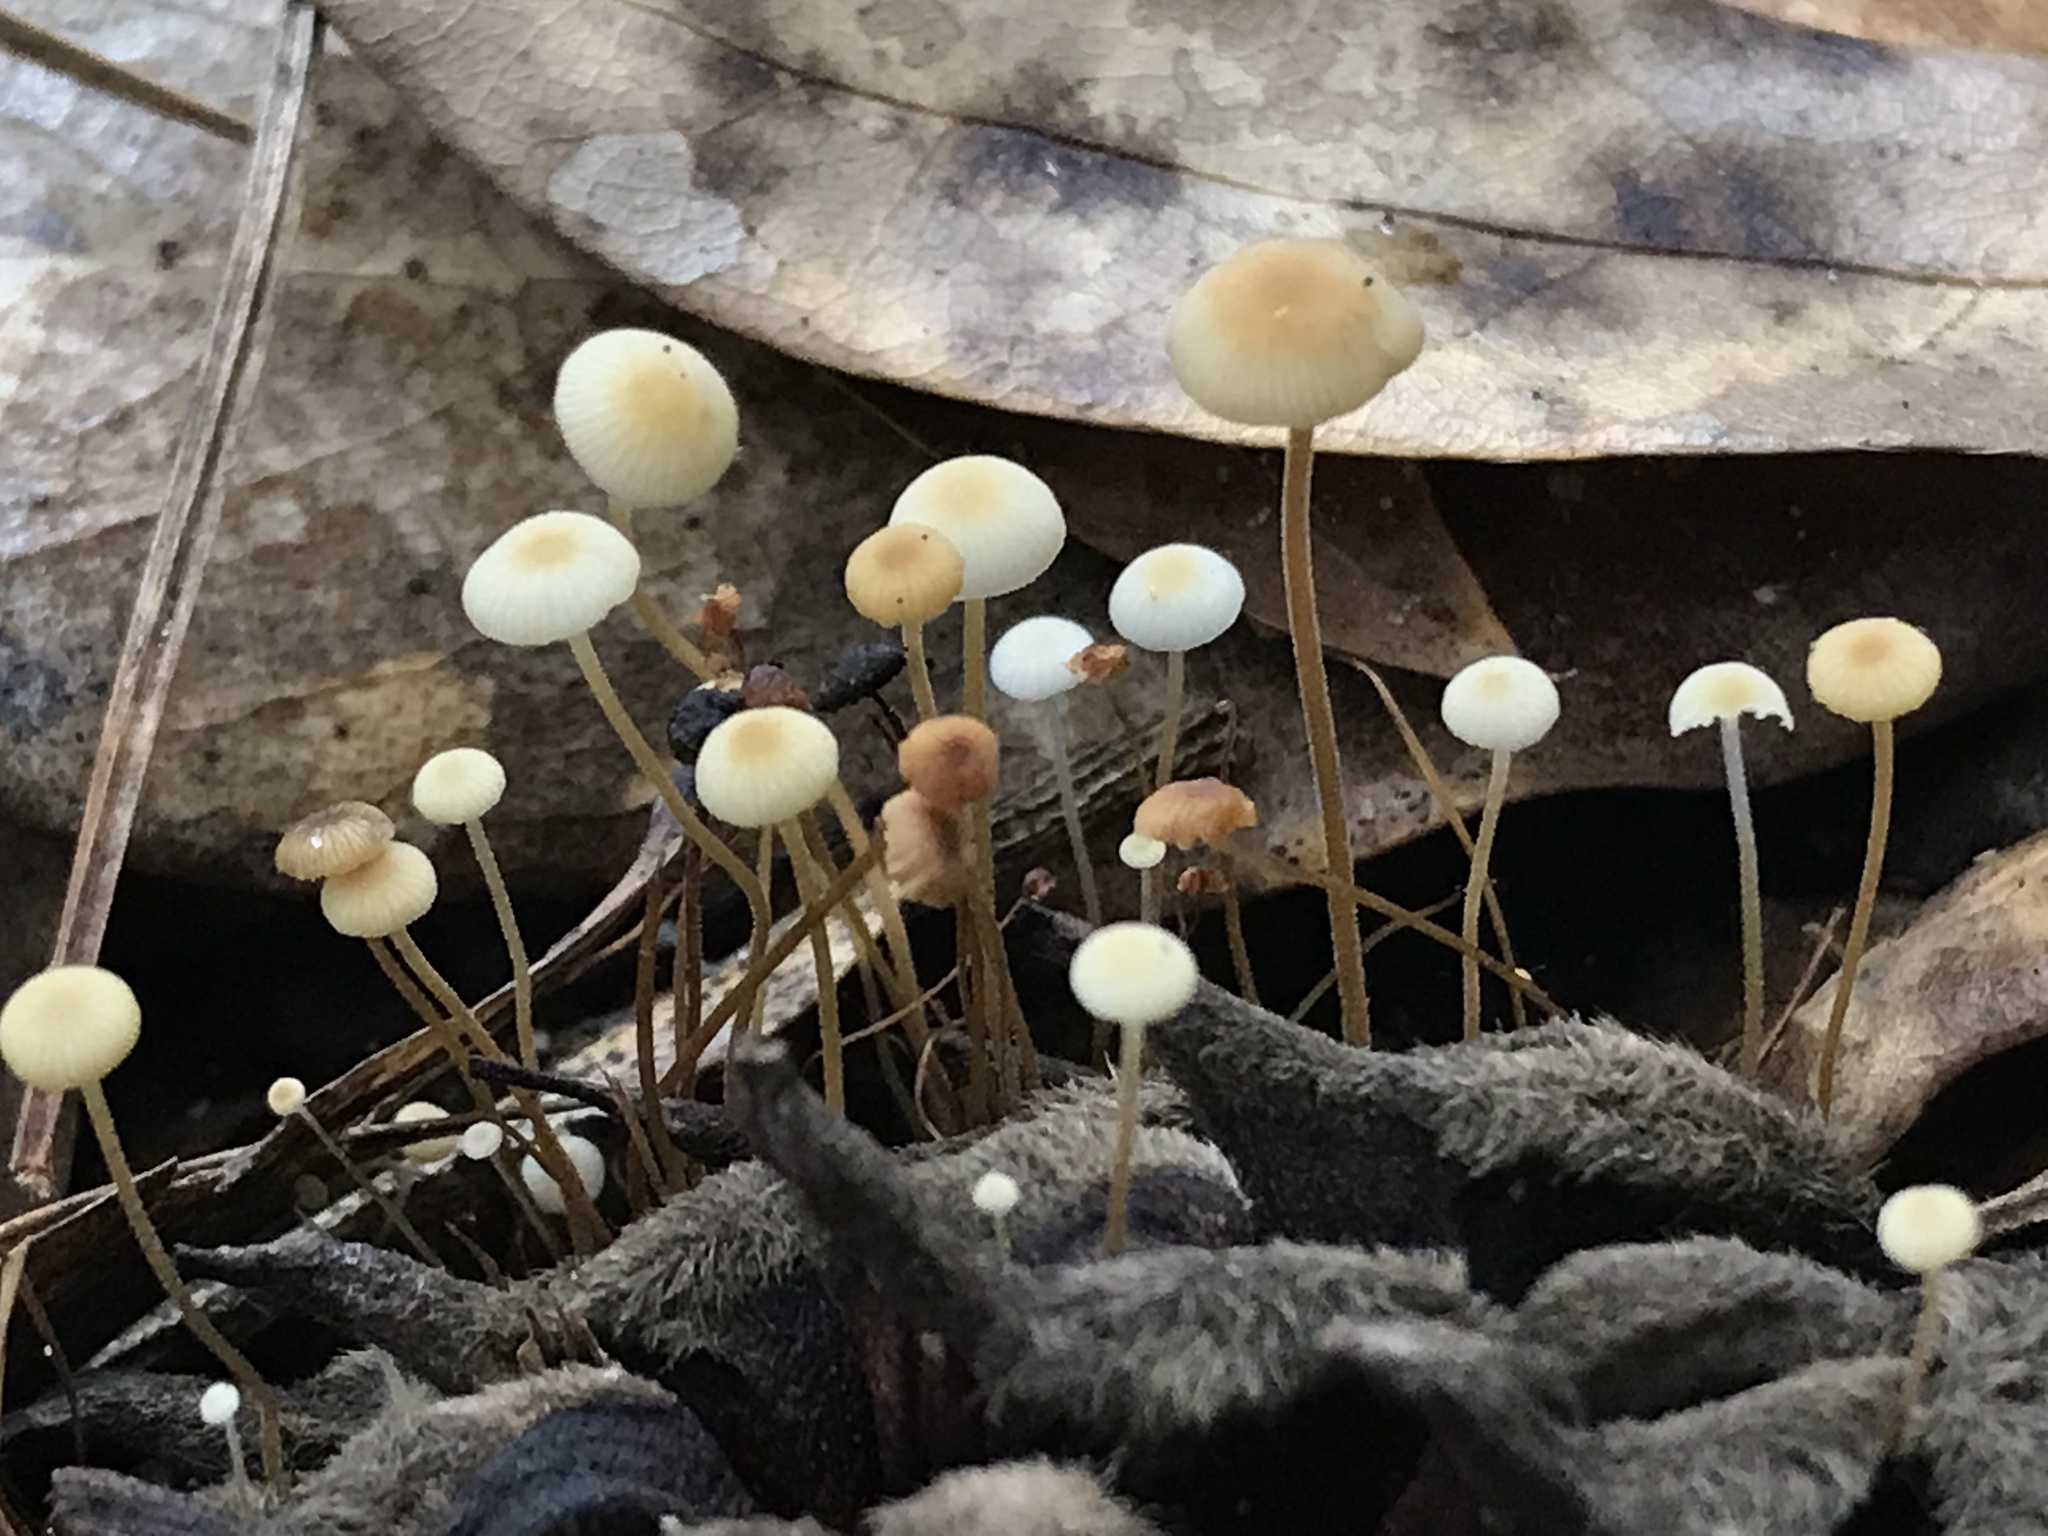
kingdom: Fungi
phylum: Basidiomycota
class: Agaricomycetes
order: Agaricales
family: Physalacriaceae
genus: Strobilurus
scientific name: Strobilurus conigenoides
